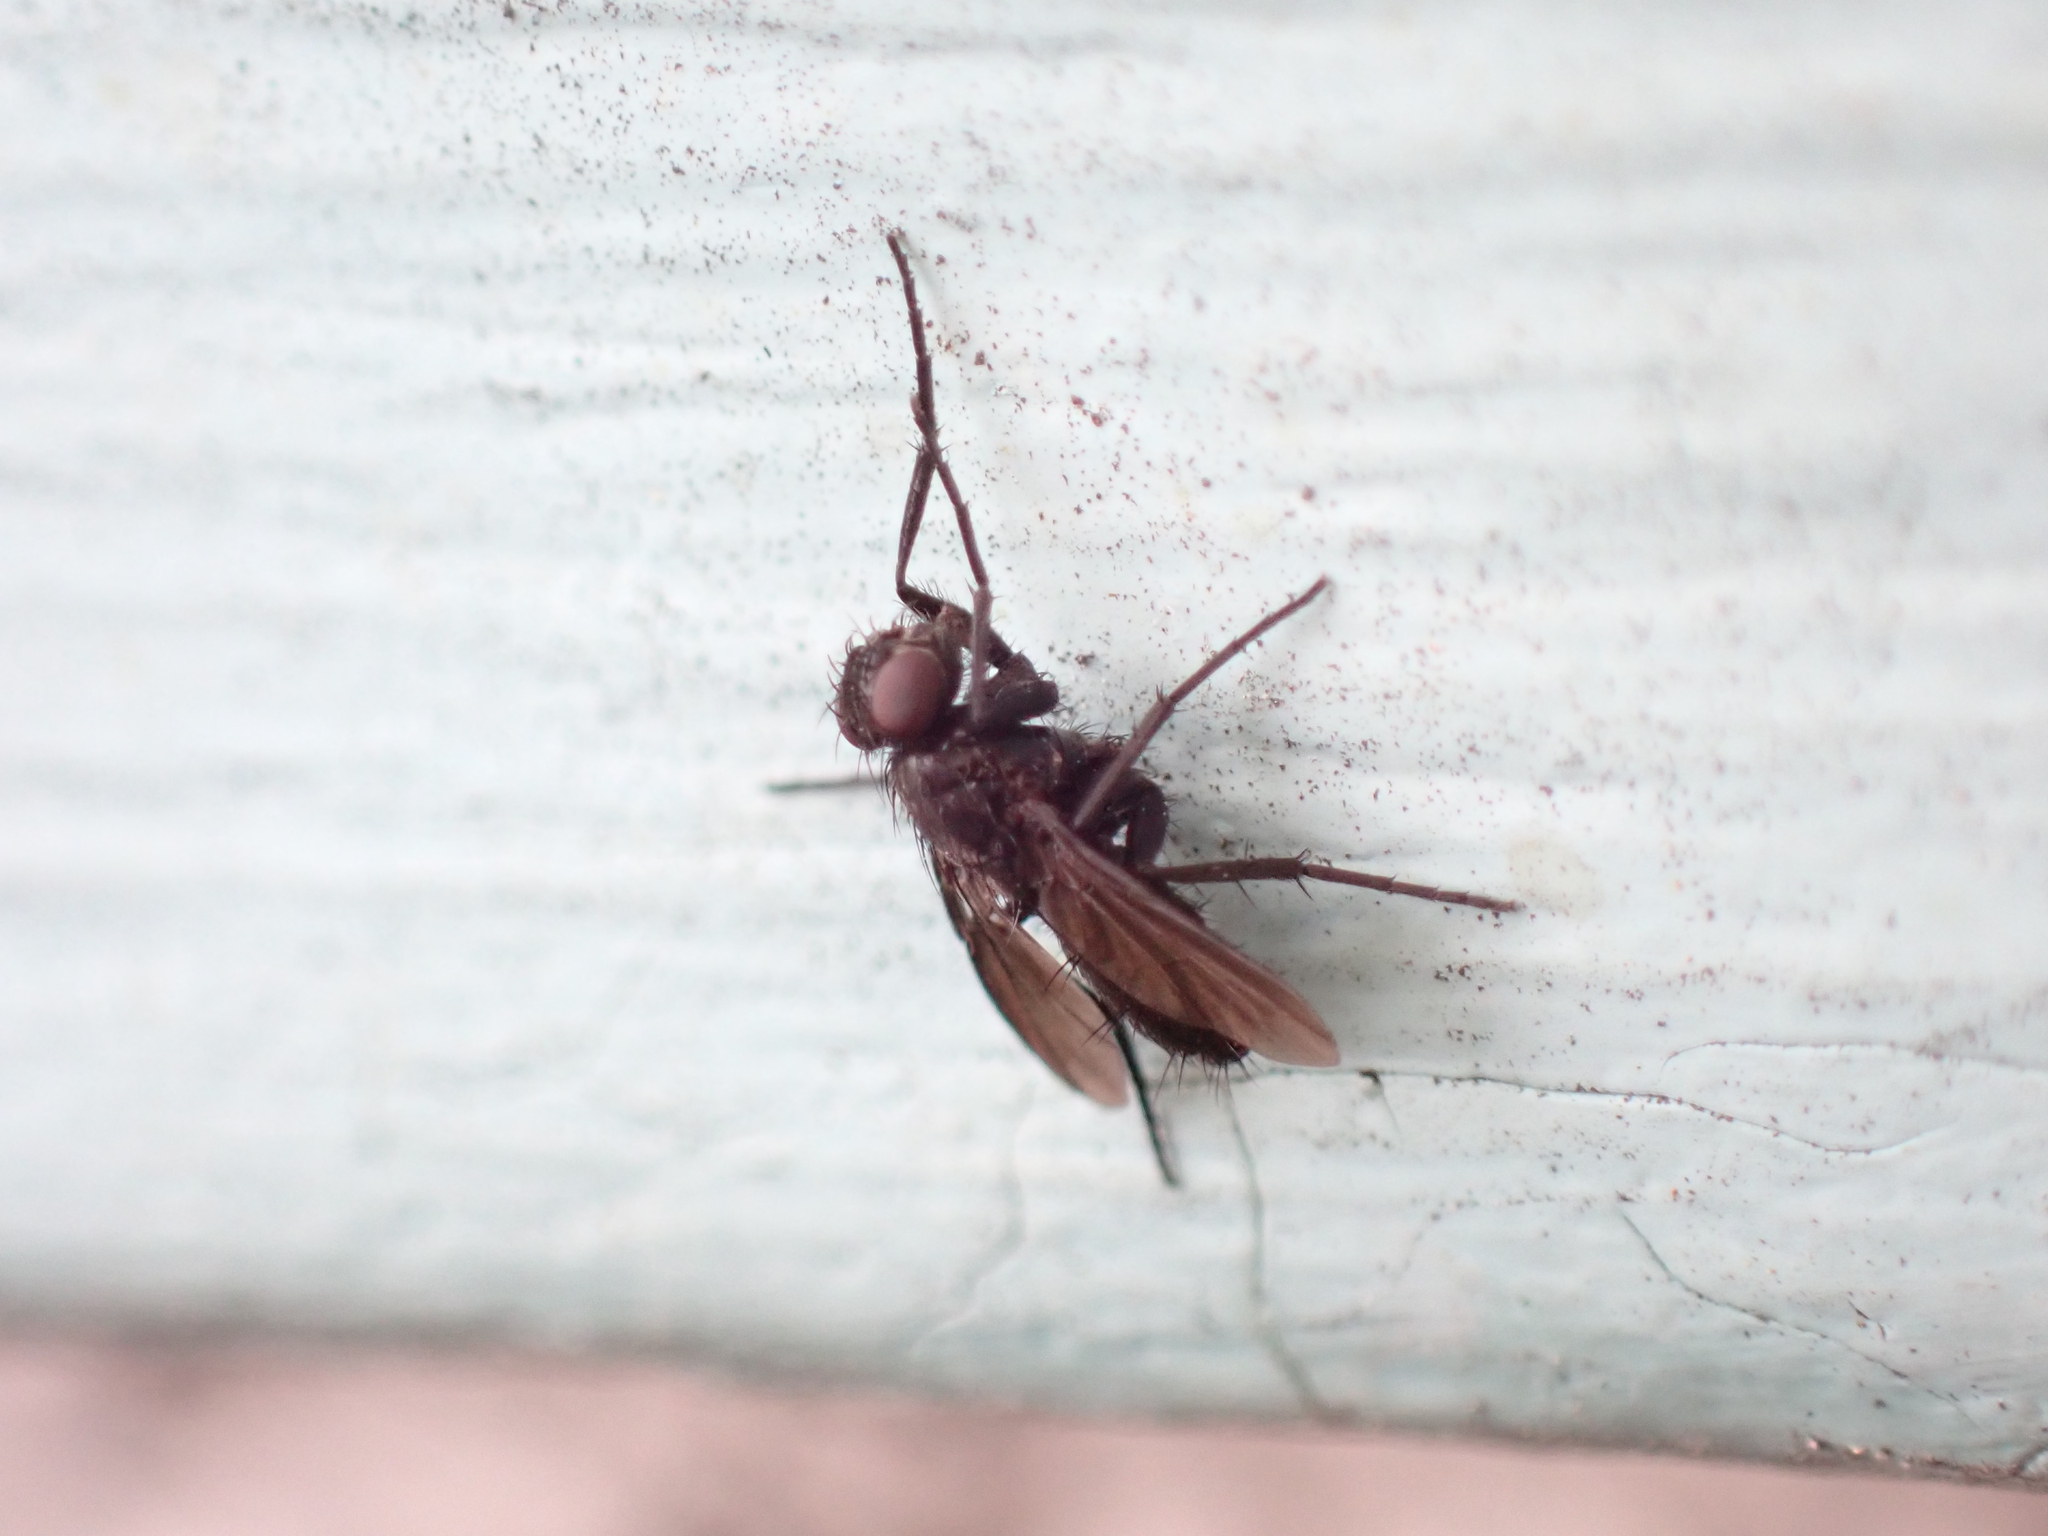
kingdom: Animalia
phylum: Arthropoda
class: Insecta
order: Diptera
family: Calliphoridae
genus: Melanophora
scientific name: Melanophora roralis
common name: Smoky-winged woodlouse-fly
